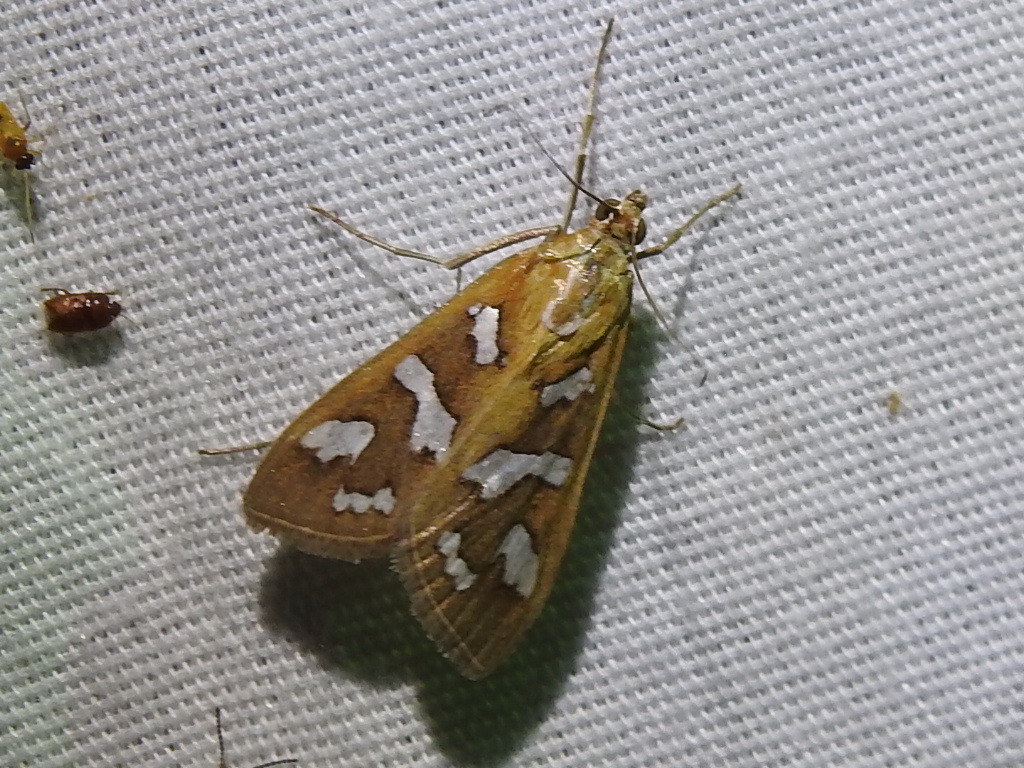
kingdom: Animalia
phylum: Arthropoda
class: Insecta
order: Lepidoptera
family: Crambidae
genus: Diastictis
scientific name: Diastictis fracturalis
